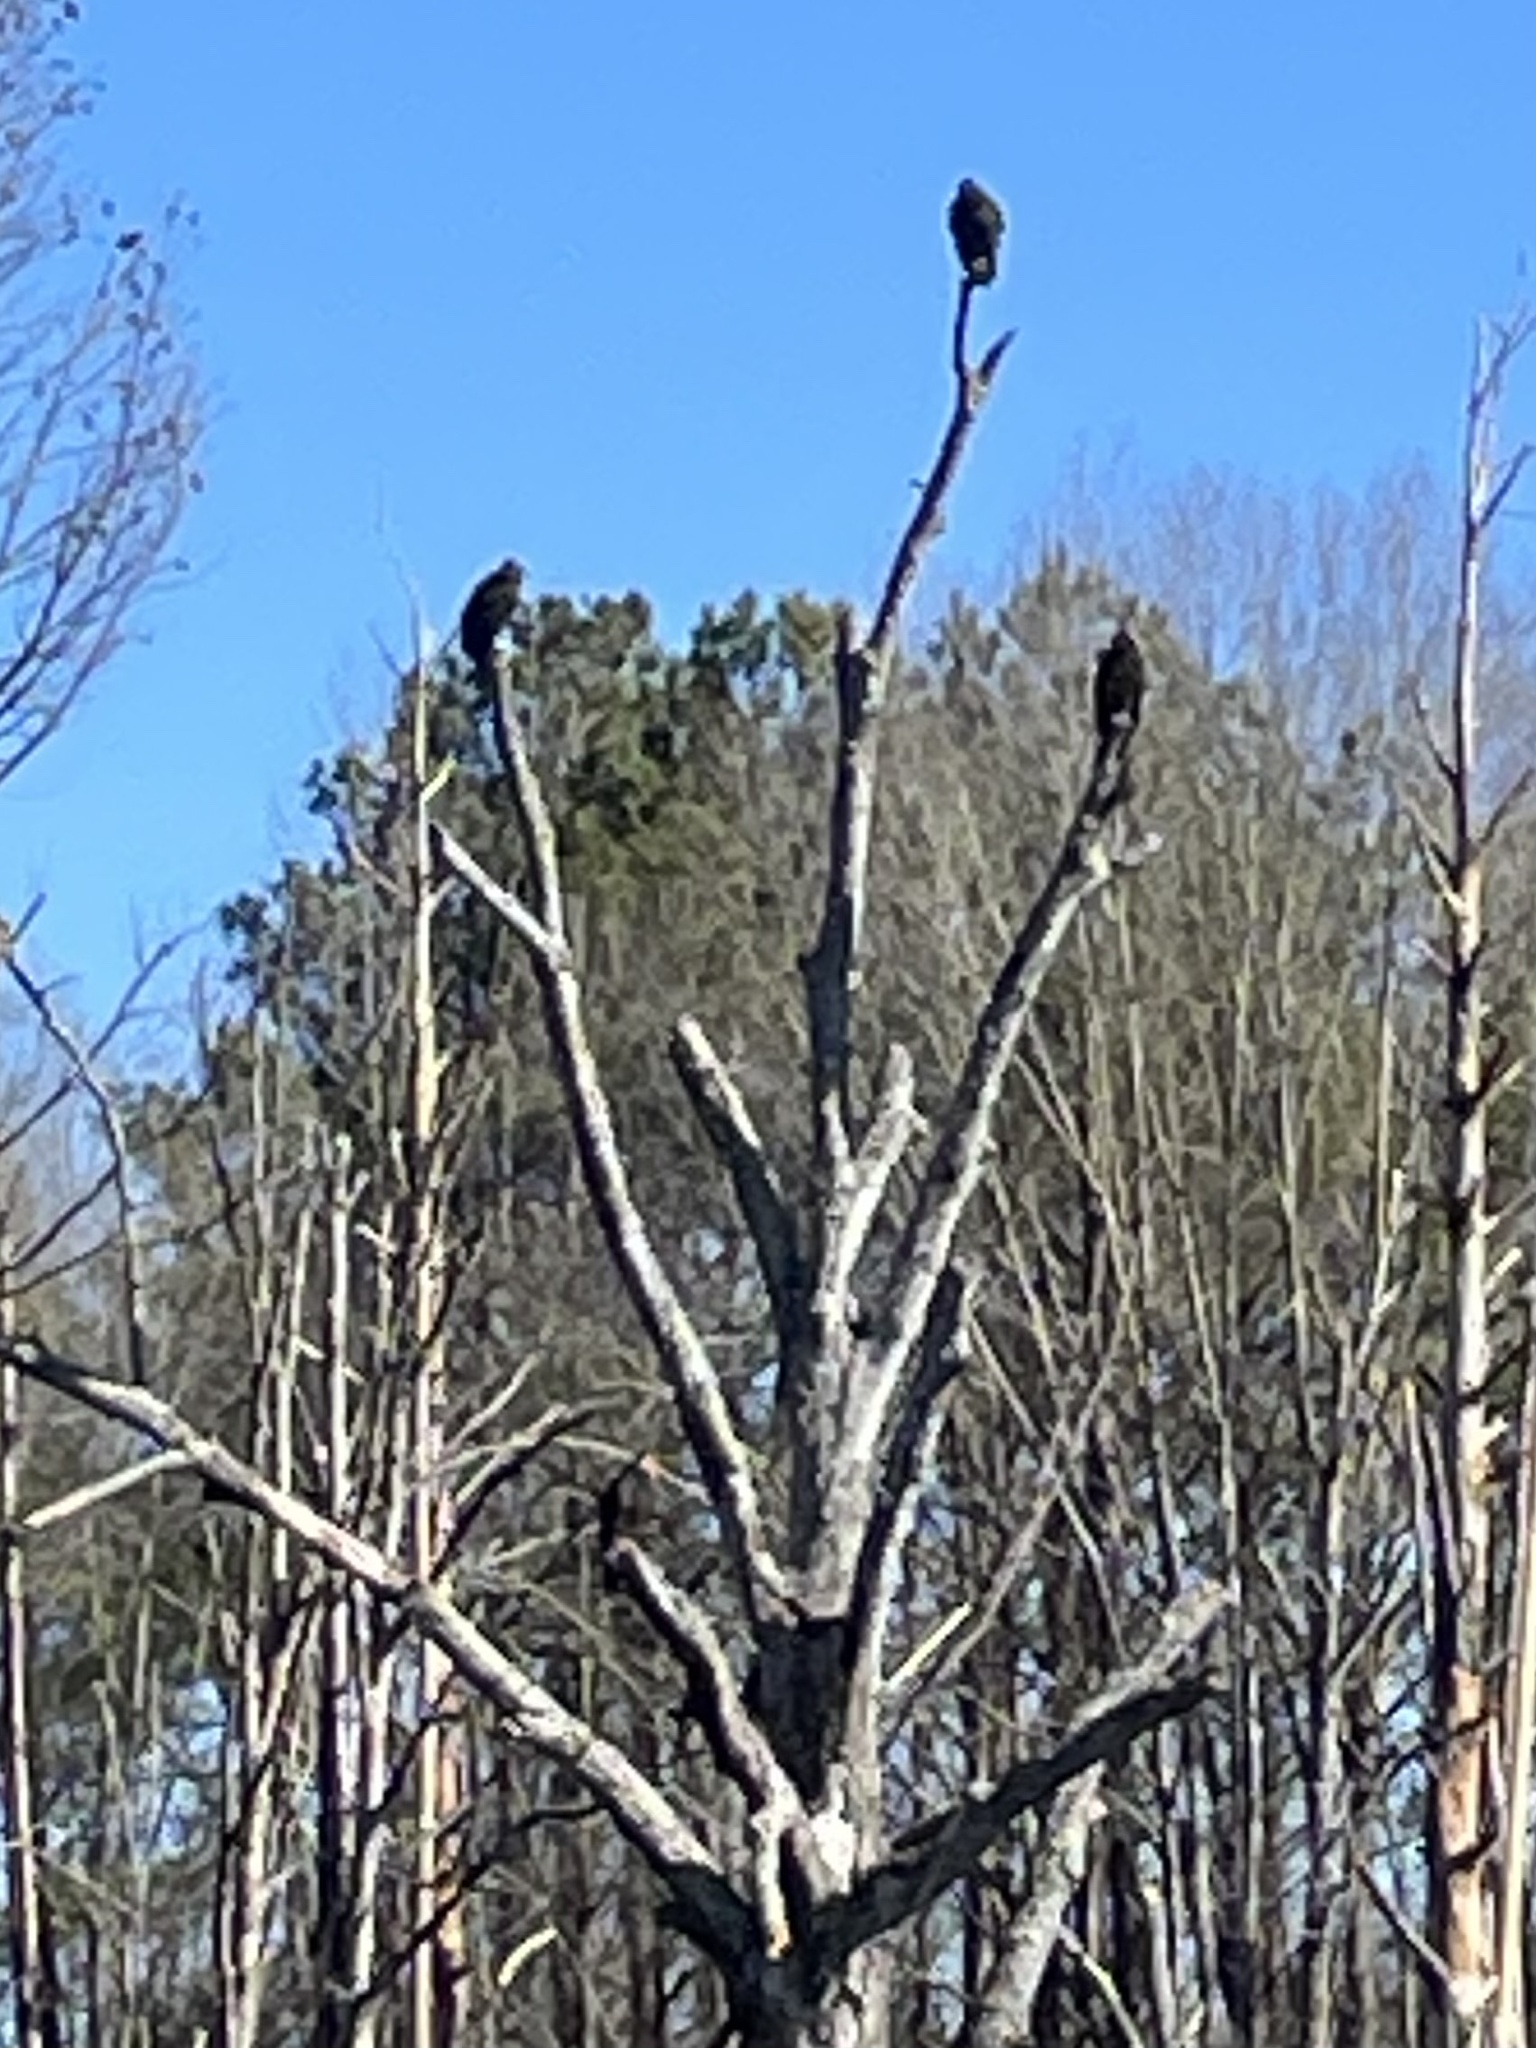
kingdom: Animalia
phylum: Chordata
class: Aves
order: Accipitriformes
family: Cathartidae
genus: Cathartes
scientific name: Cathartes aura
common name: Turkey vulture
